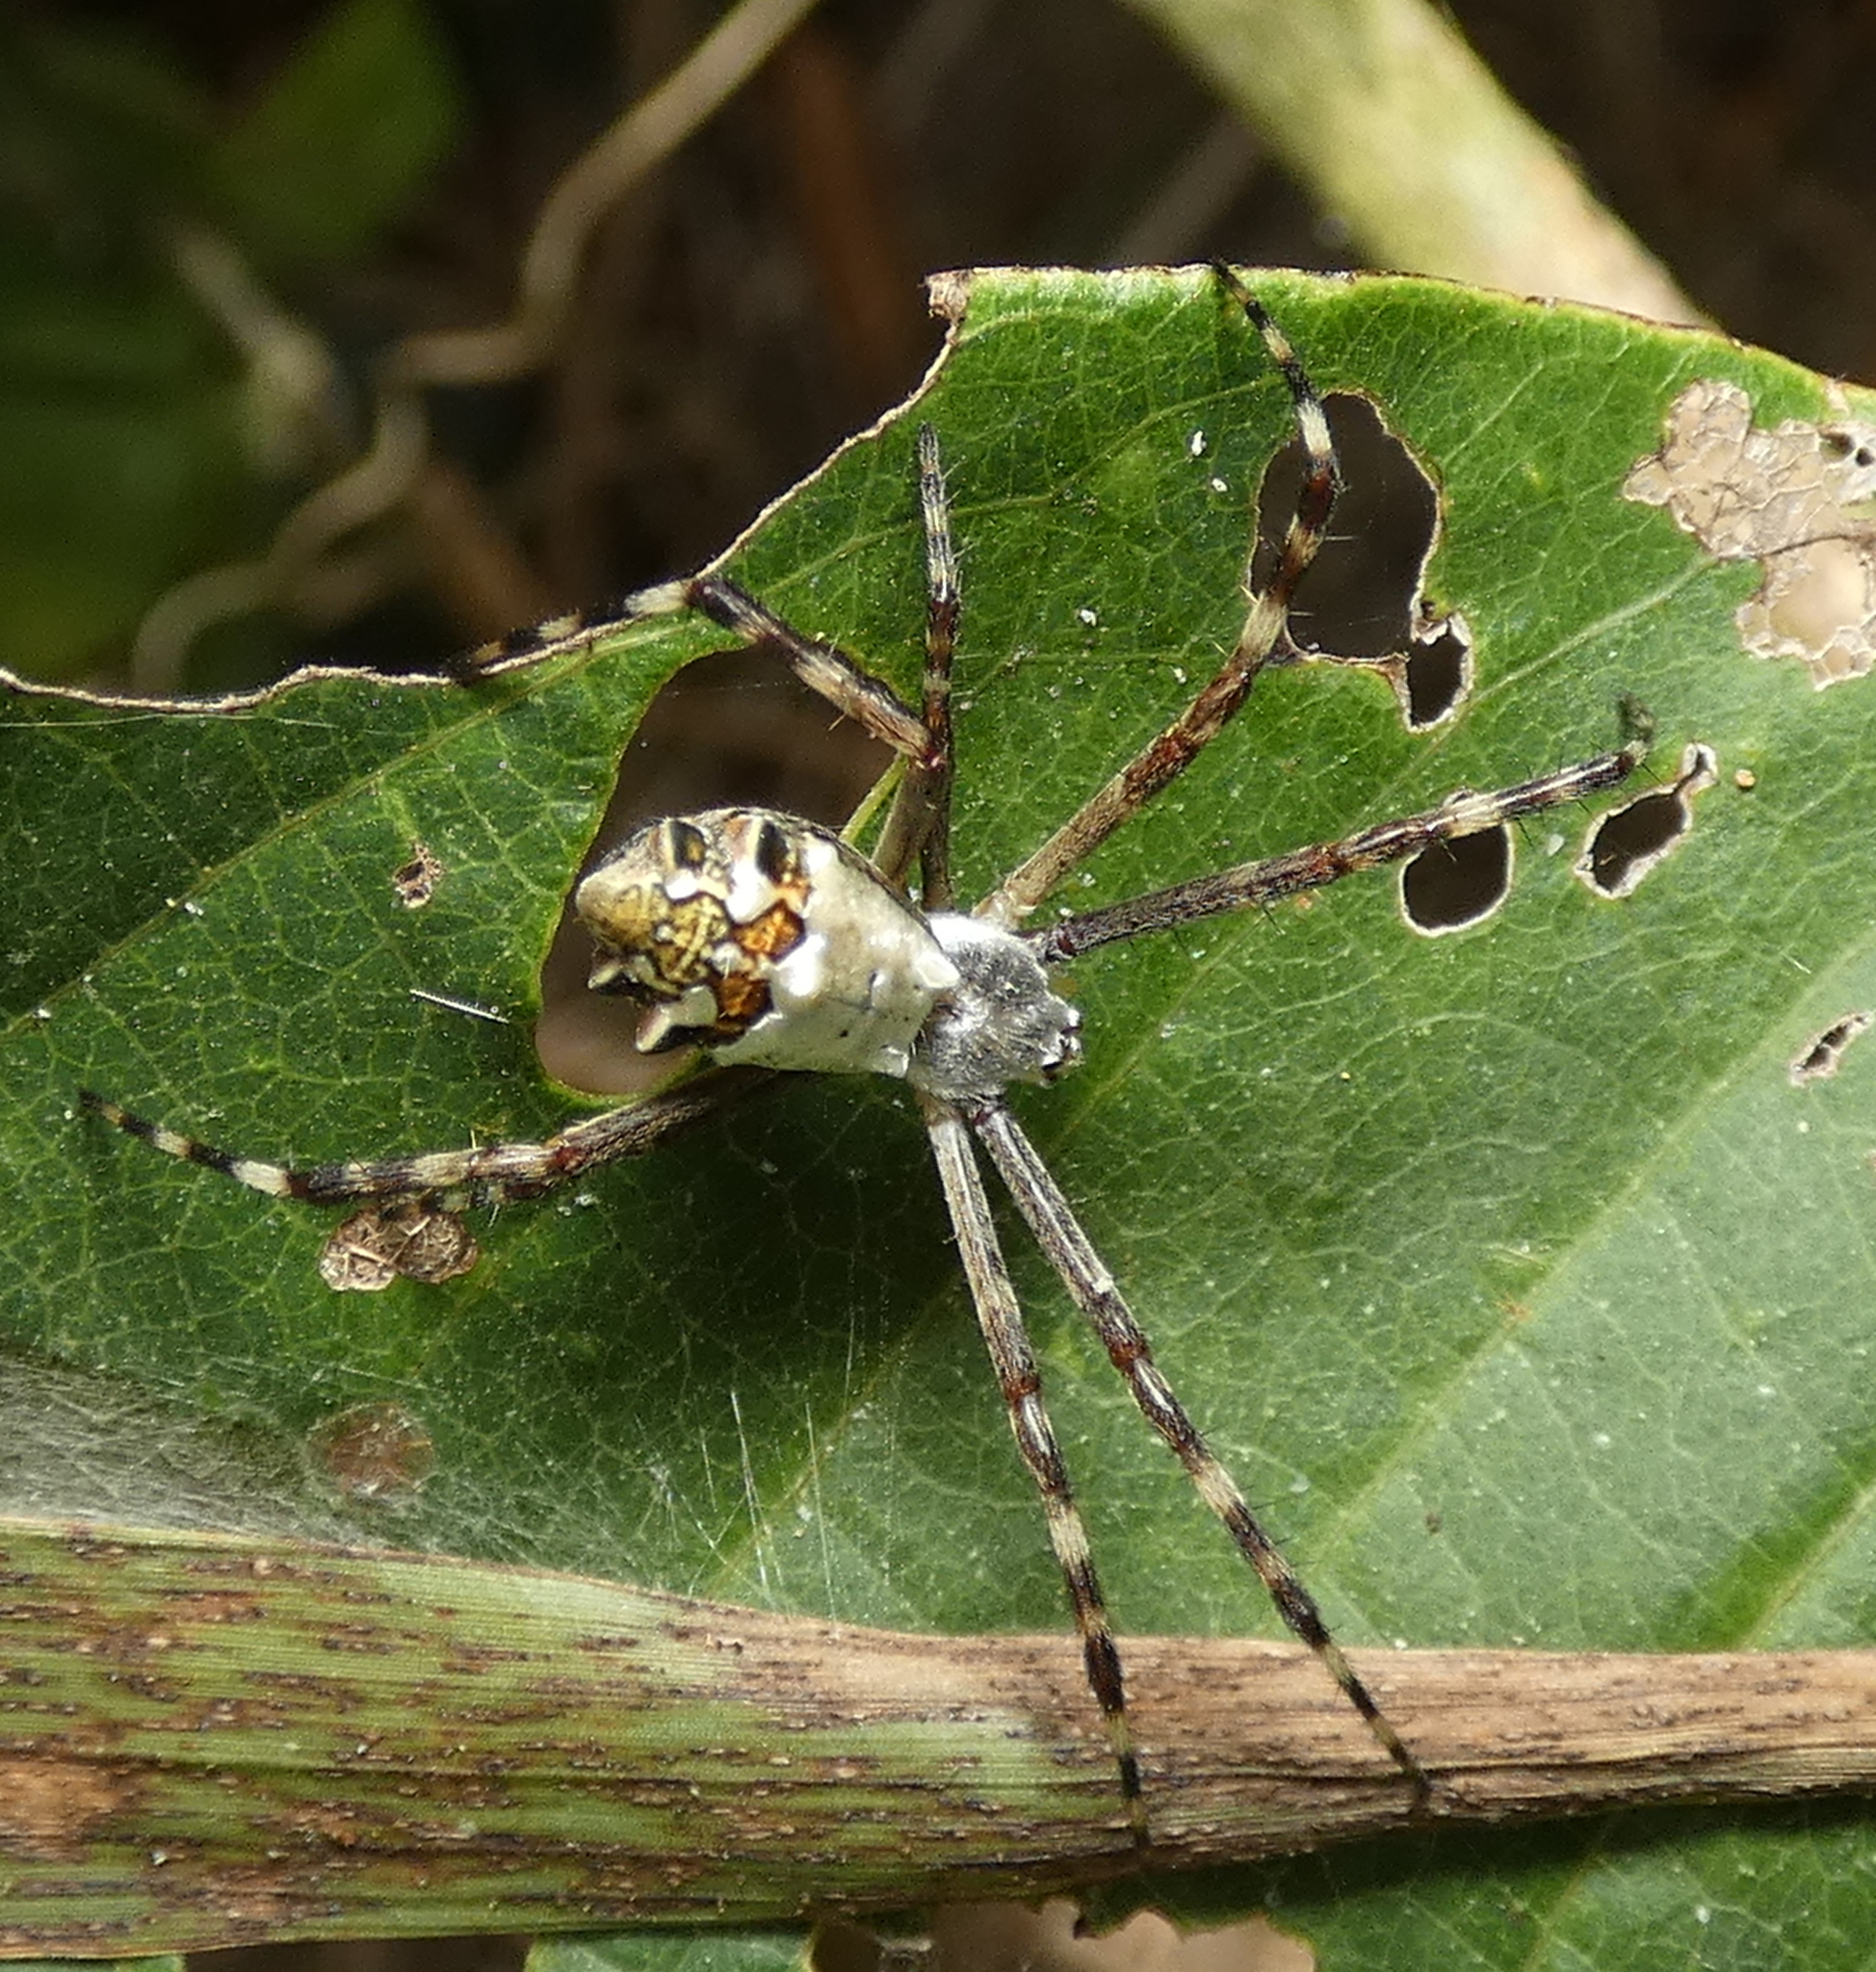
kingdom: Animalia
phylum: Arthropoda
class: Arachnida
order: Araneae
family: Araneidae
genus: Argiope
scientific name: Argiope argentata
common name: Orb weavers
